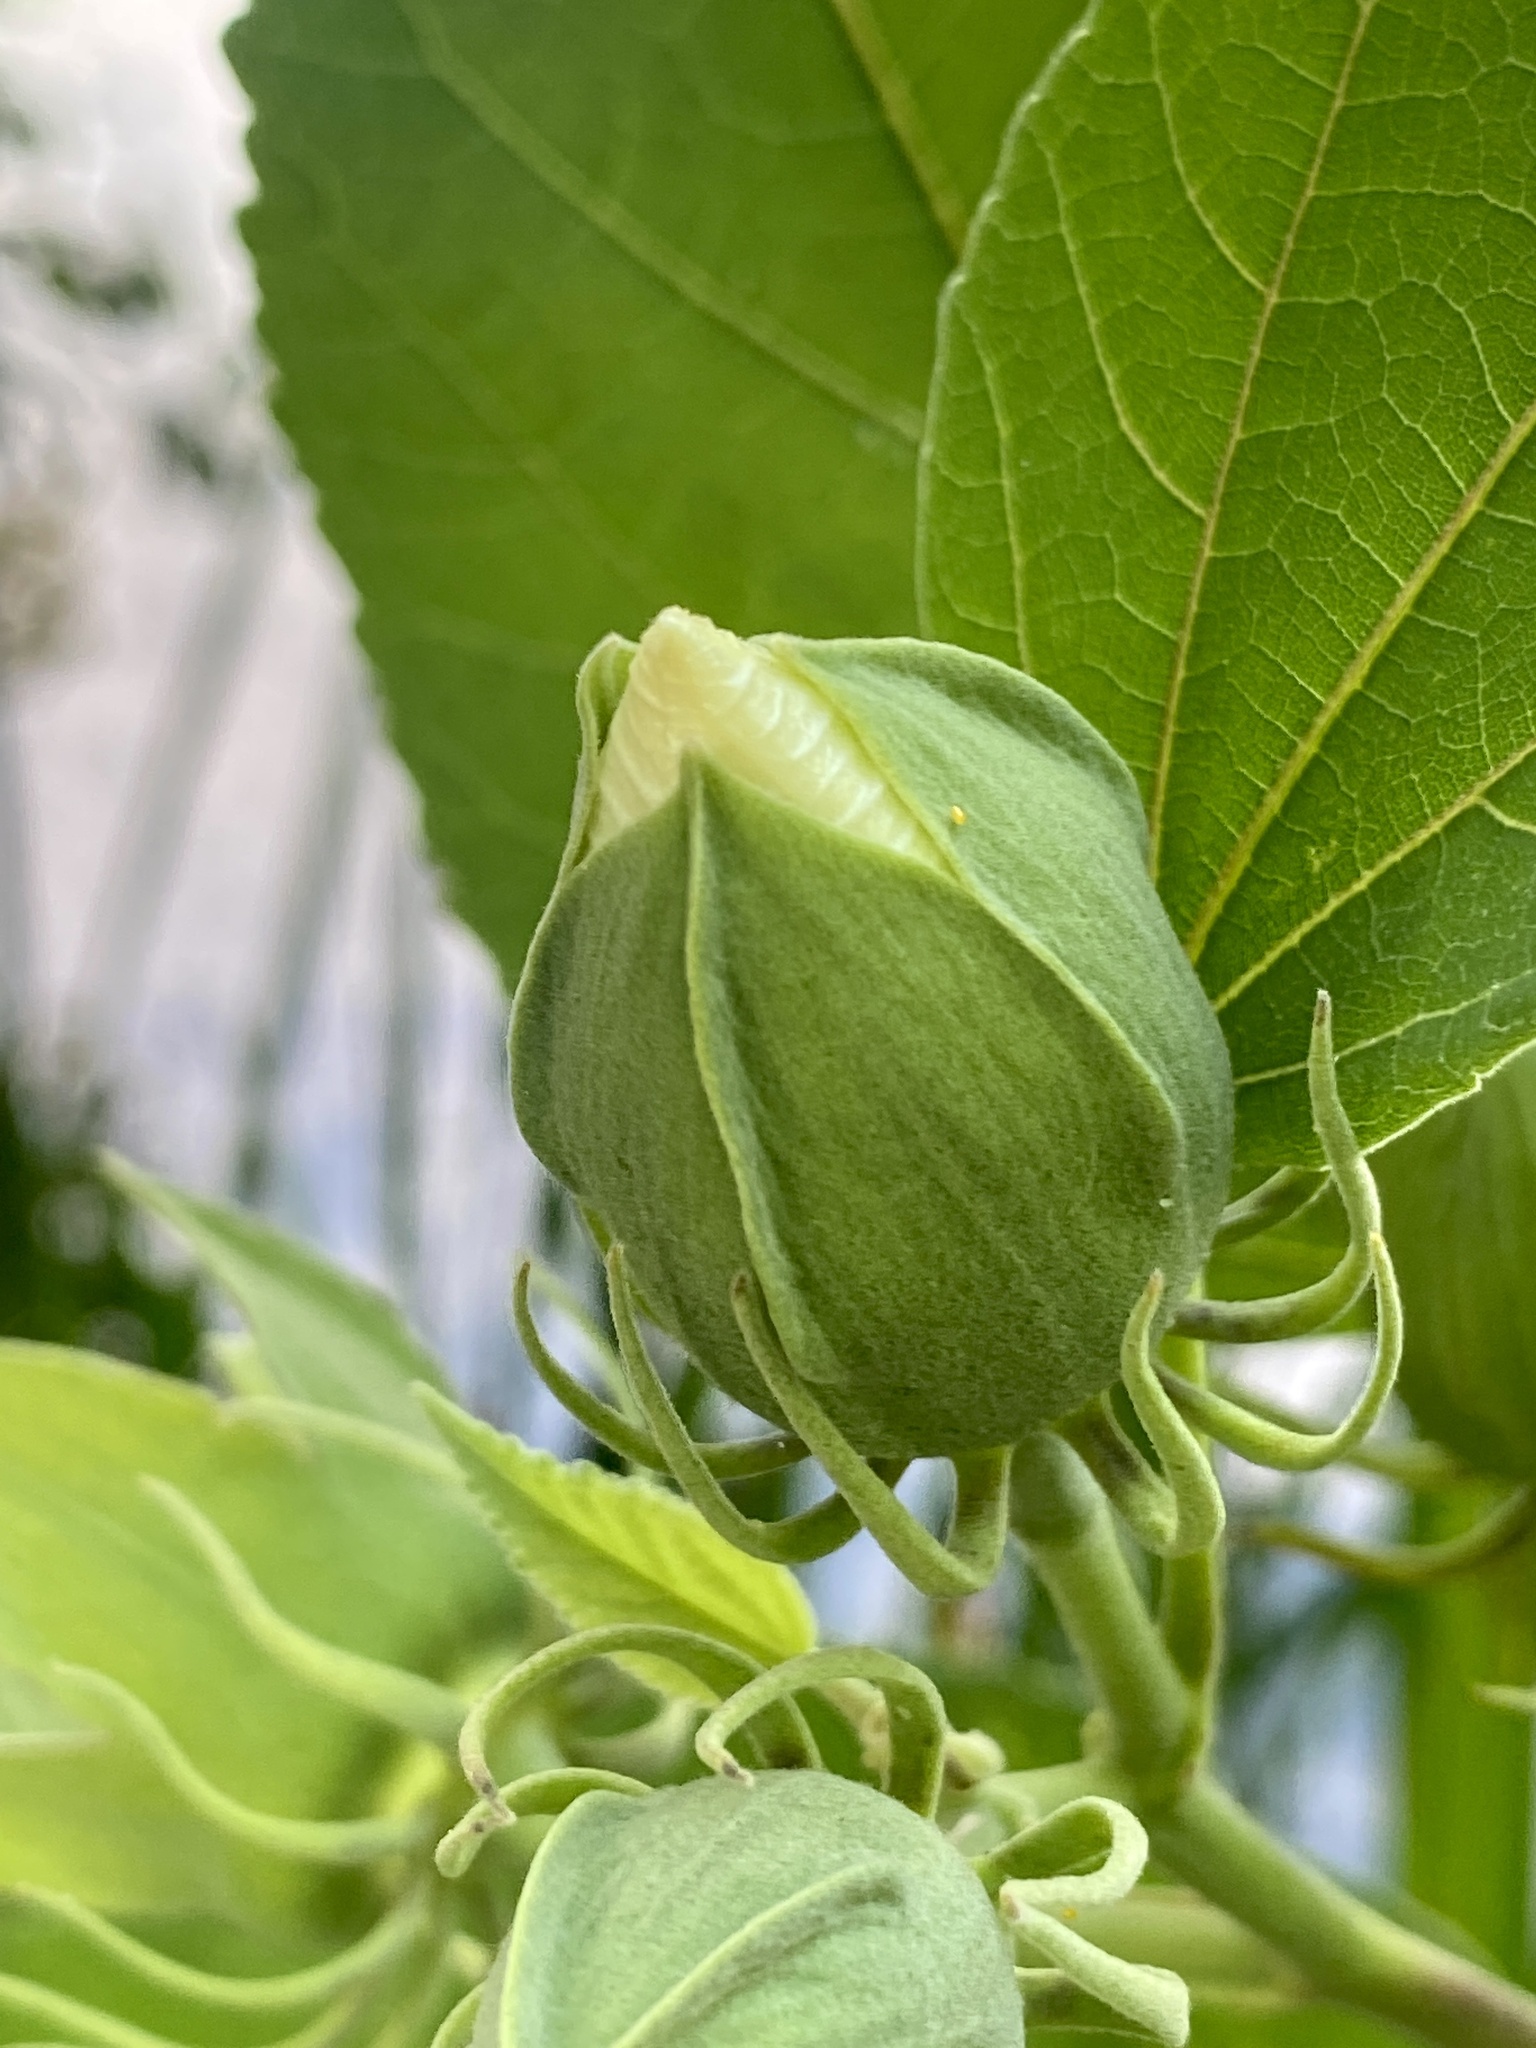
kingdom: Plantae
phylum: Tracheophyta
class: Magnoliopsida
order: Malvales
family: Malvaceae
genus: Hibiscus
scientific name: Hibiscus moscheutos
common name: Common rose-mallow
